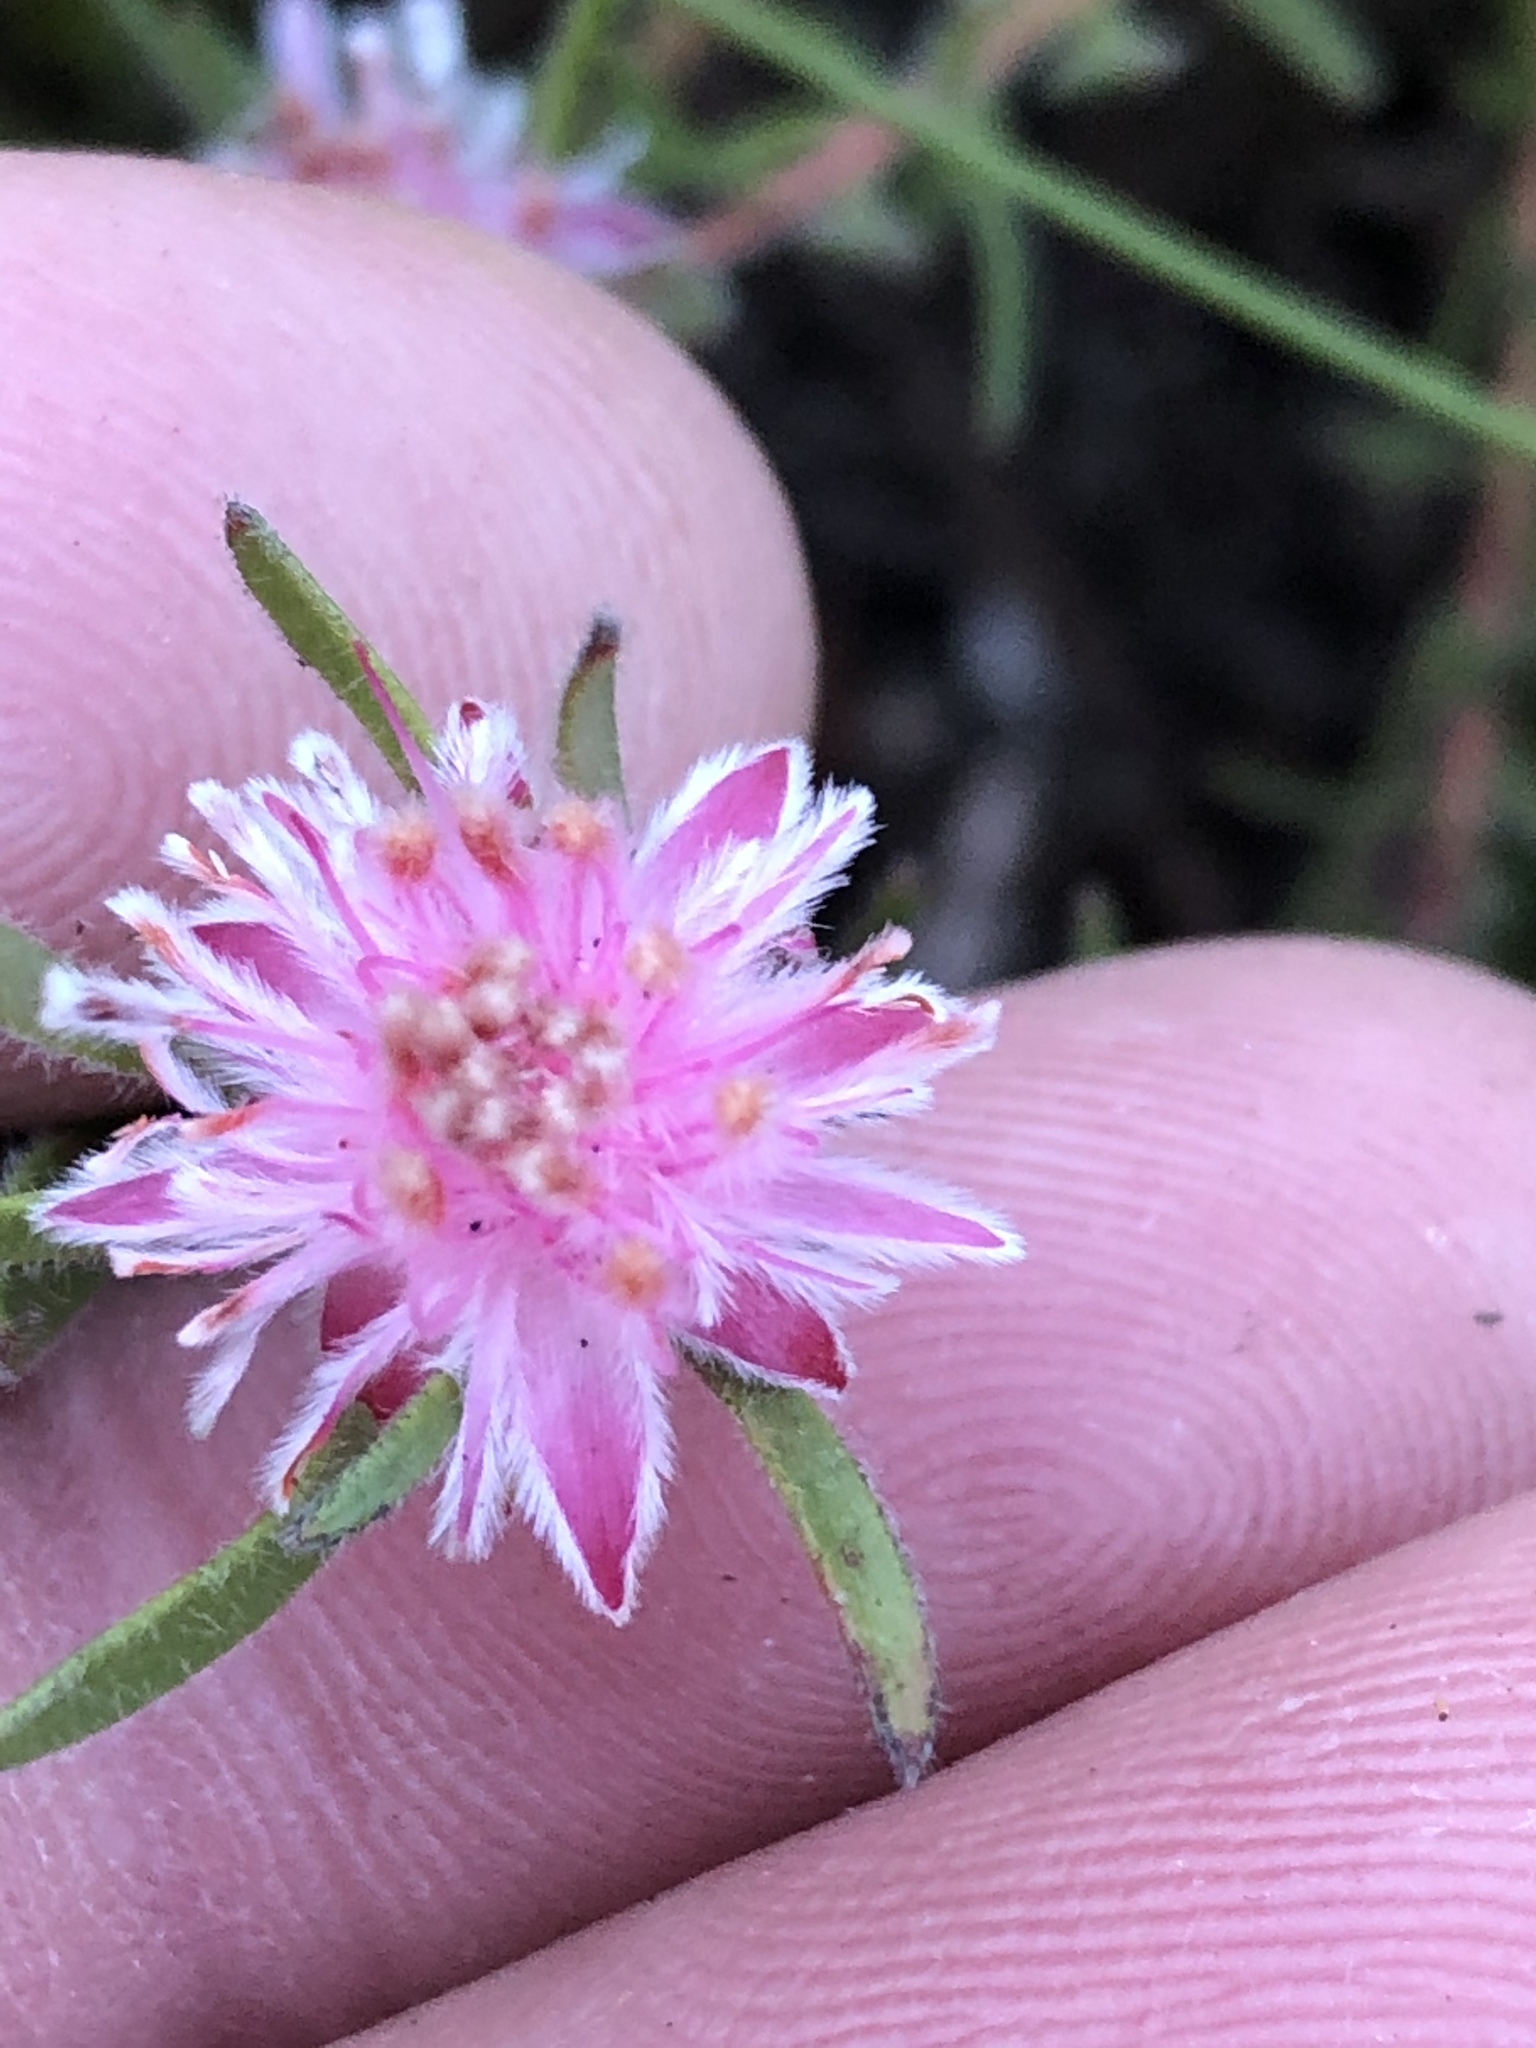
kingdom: Plantae
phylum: Tracheophyta
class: Magnoliopsida
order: Proteales
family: Proteaceae
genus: Diastella
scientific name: Diastella divaricata
